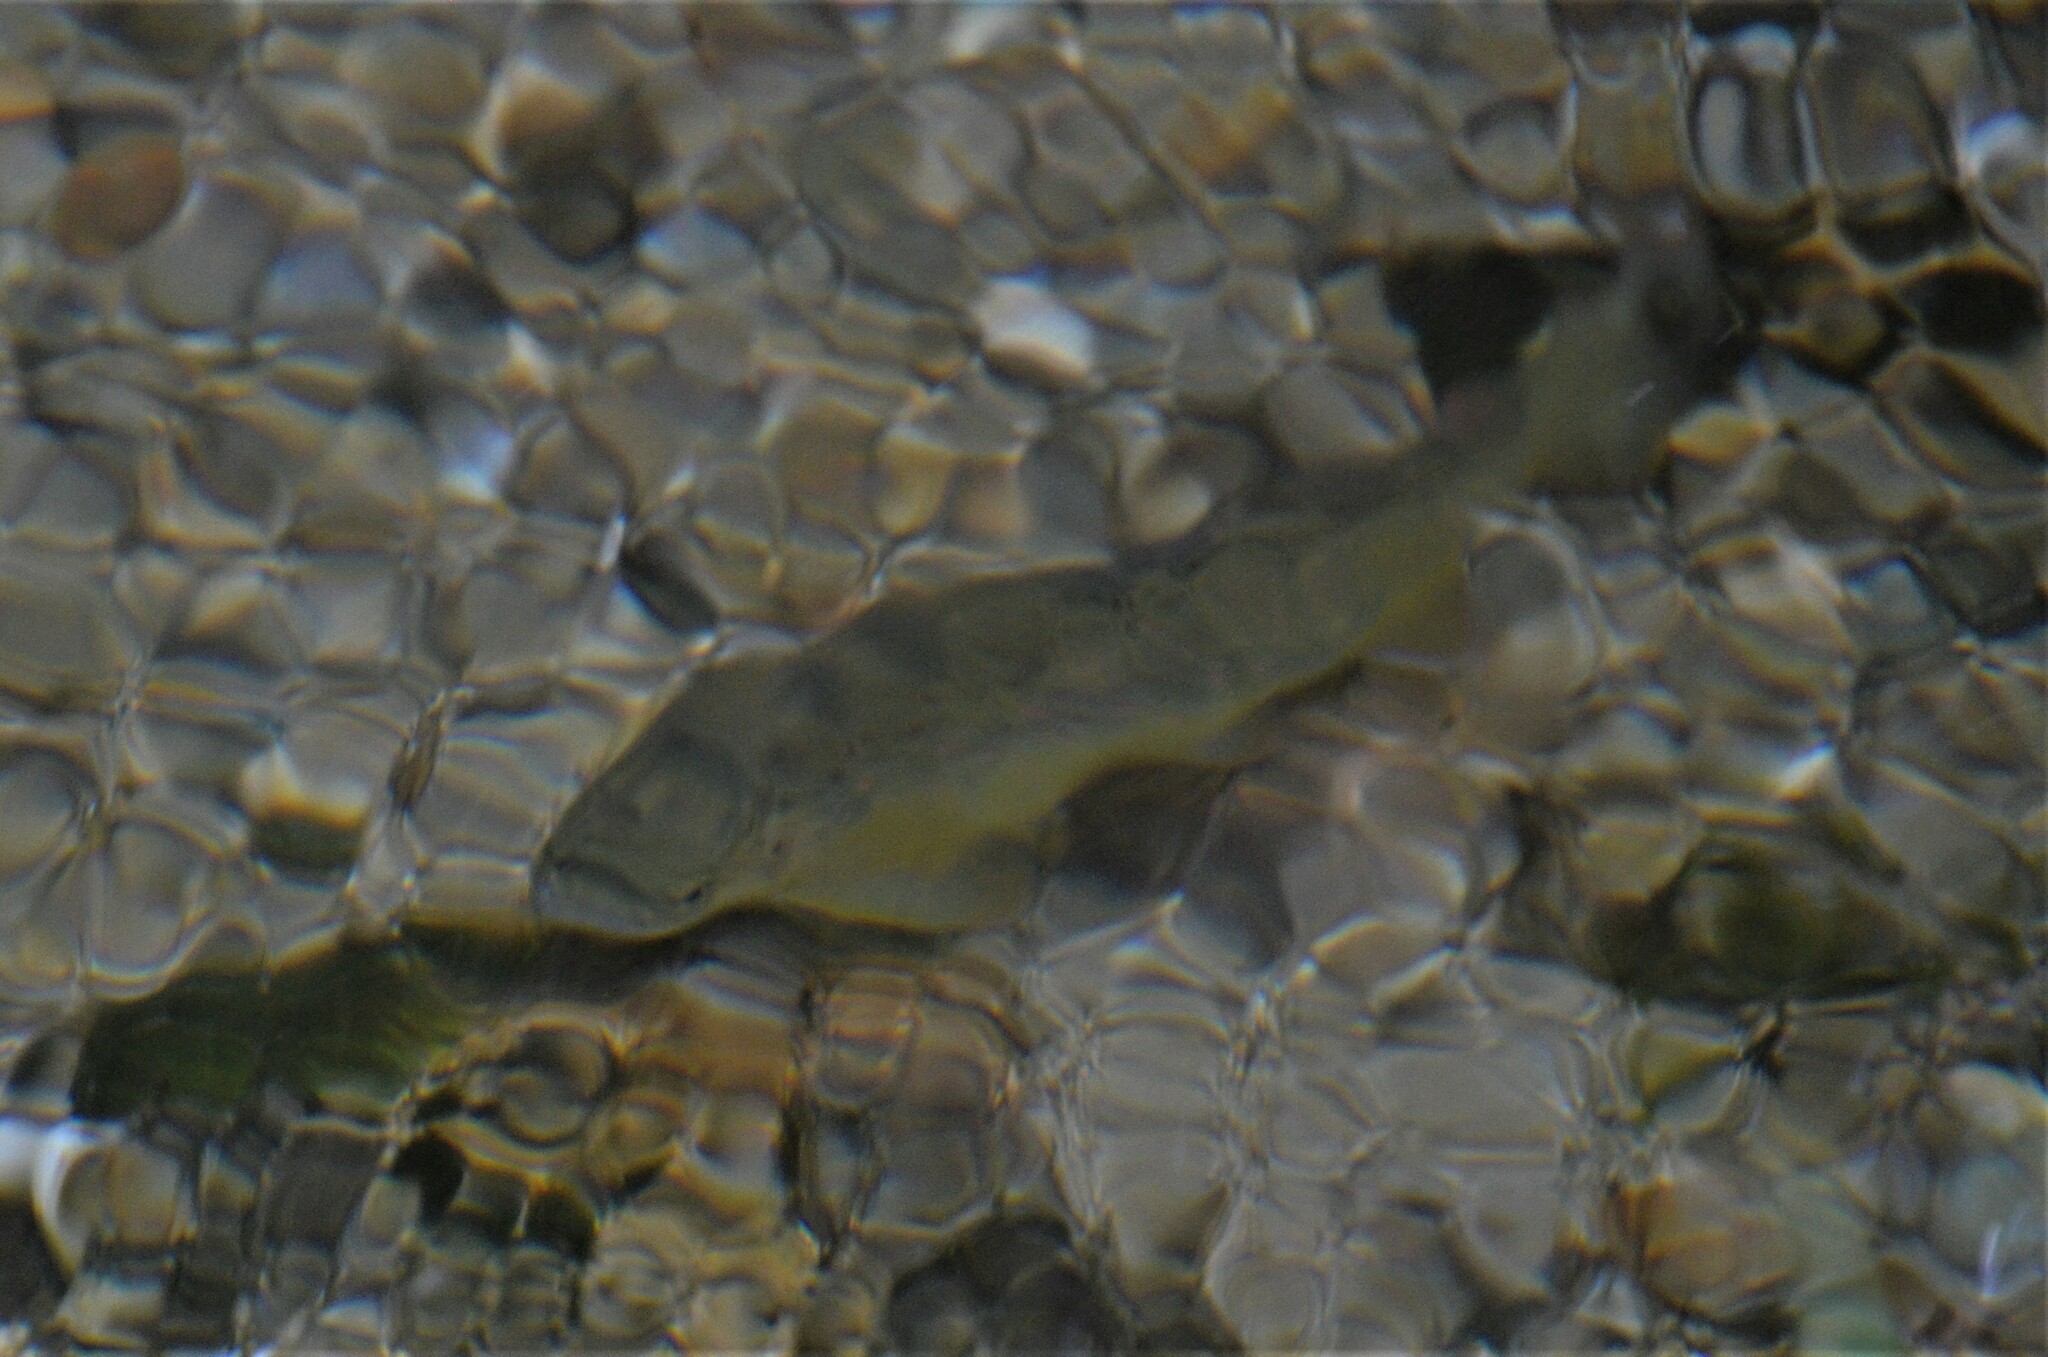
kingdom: Animalia
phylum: Chordata
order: Salmoniformes
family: Salmonidae
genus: Salmo
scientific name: Salmo trutta
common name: Brown trout
